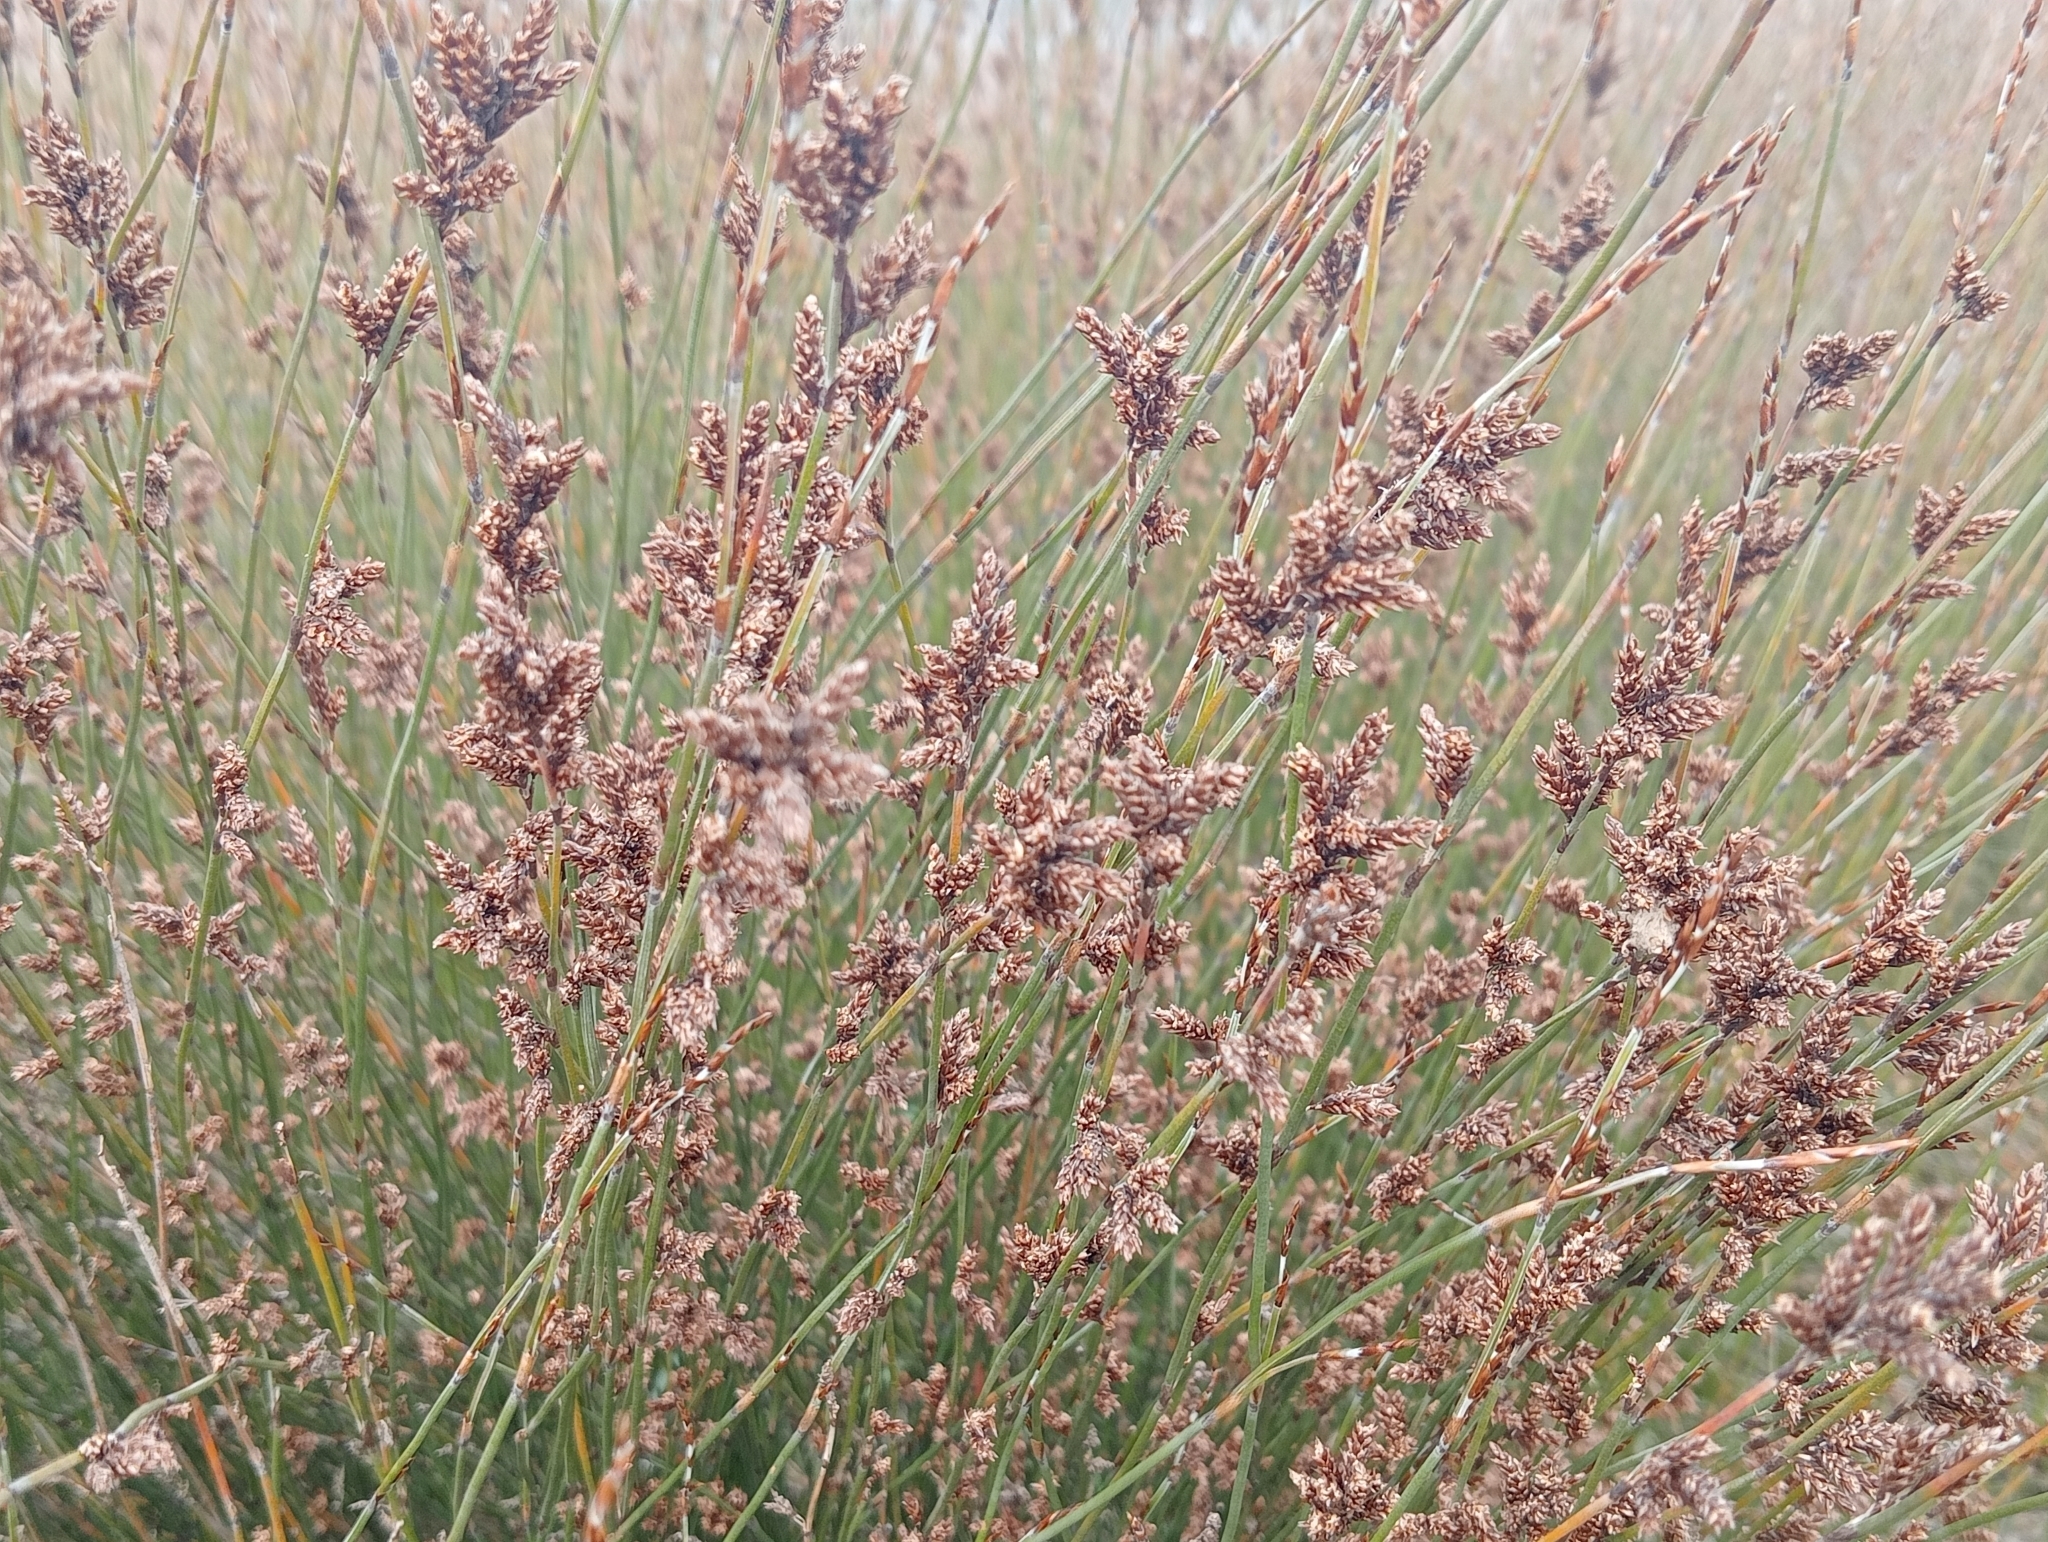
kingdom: Plantae
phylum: Tracheophyta
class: Liliopsida
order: Poales
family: Restionaceae
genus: Apodasmia
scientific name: Apodasmia similis
